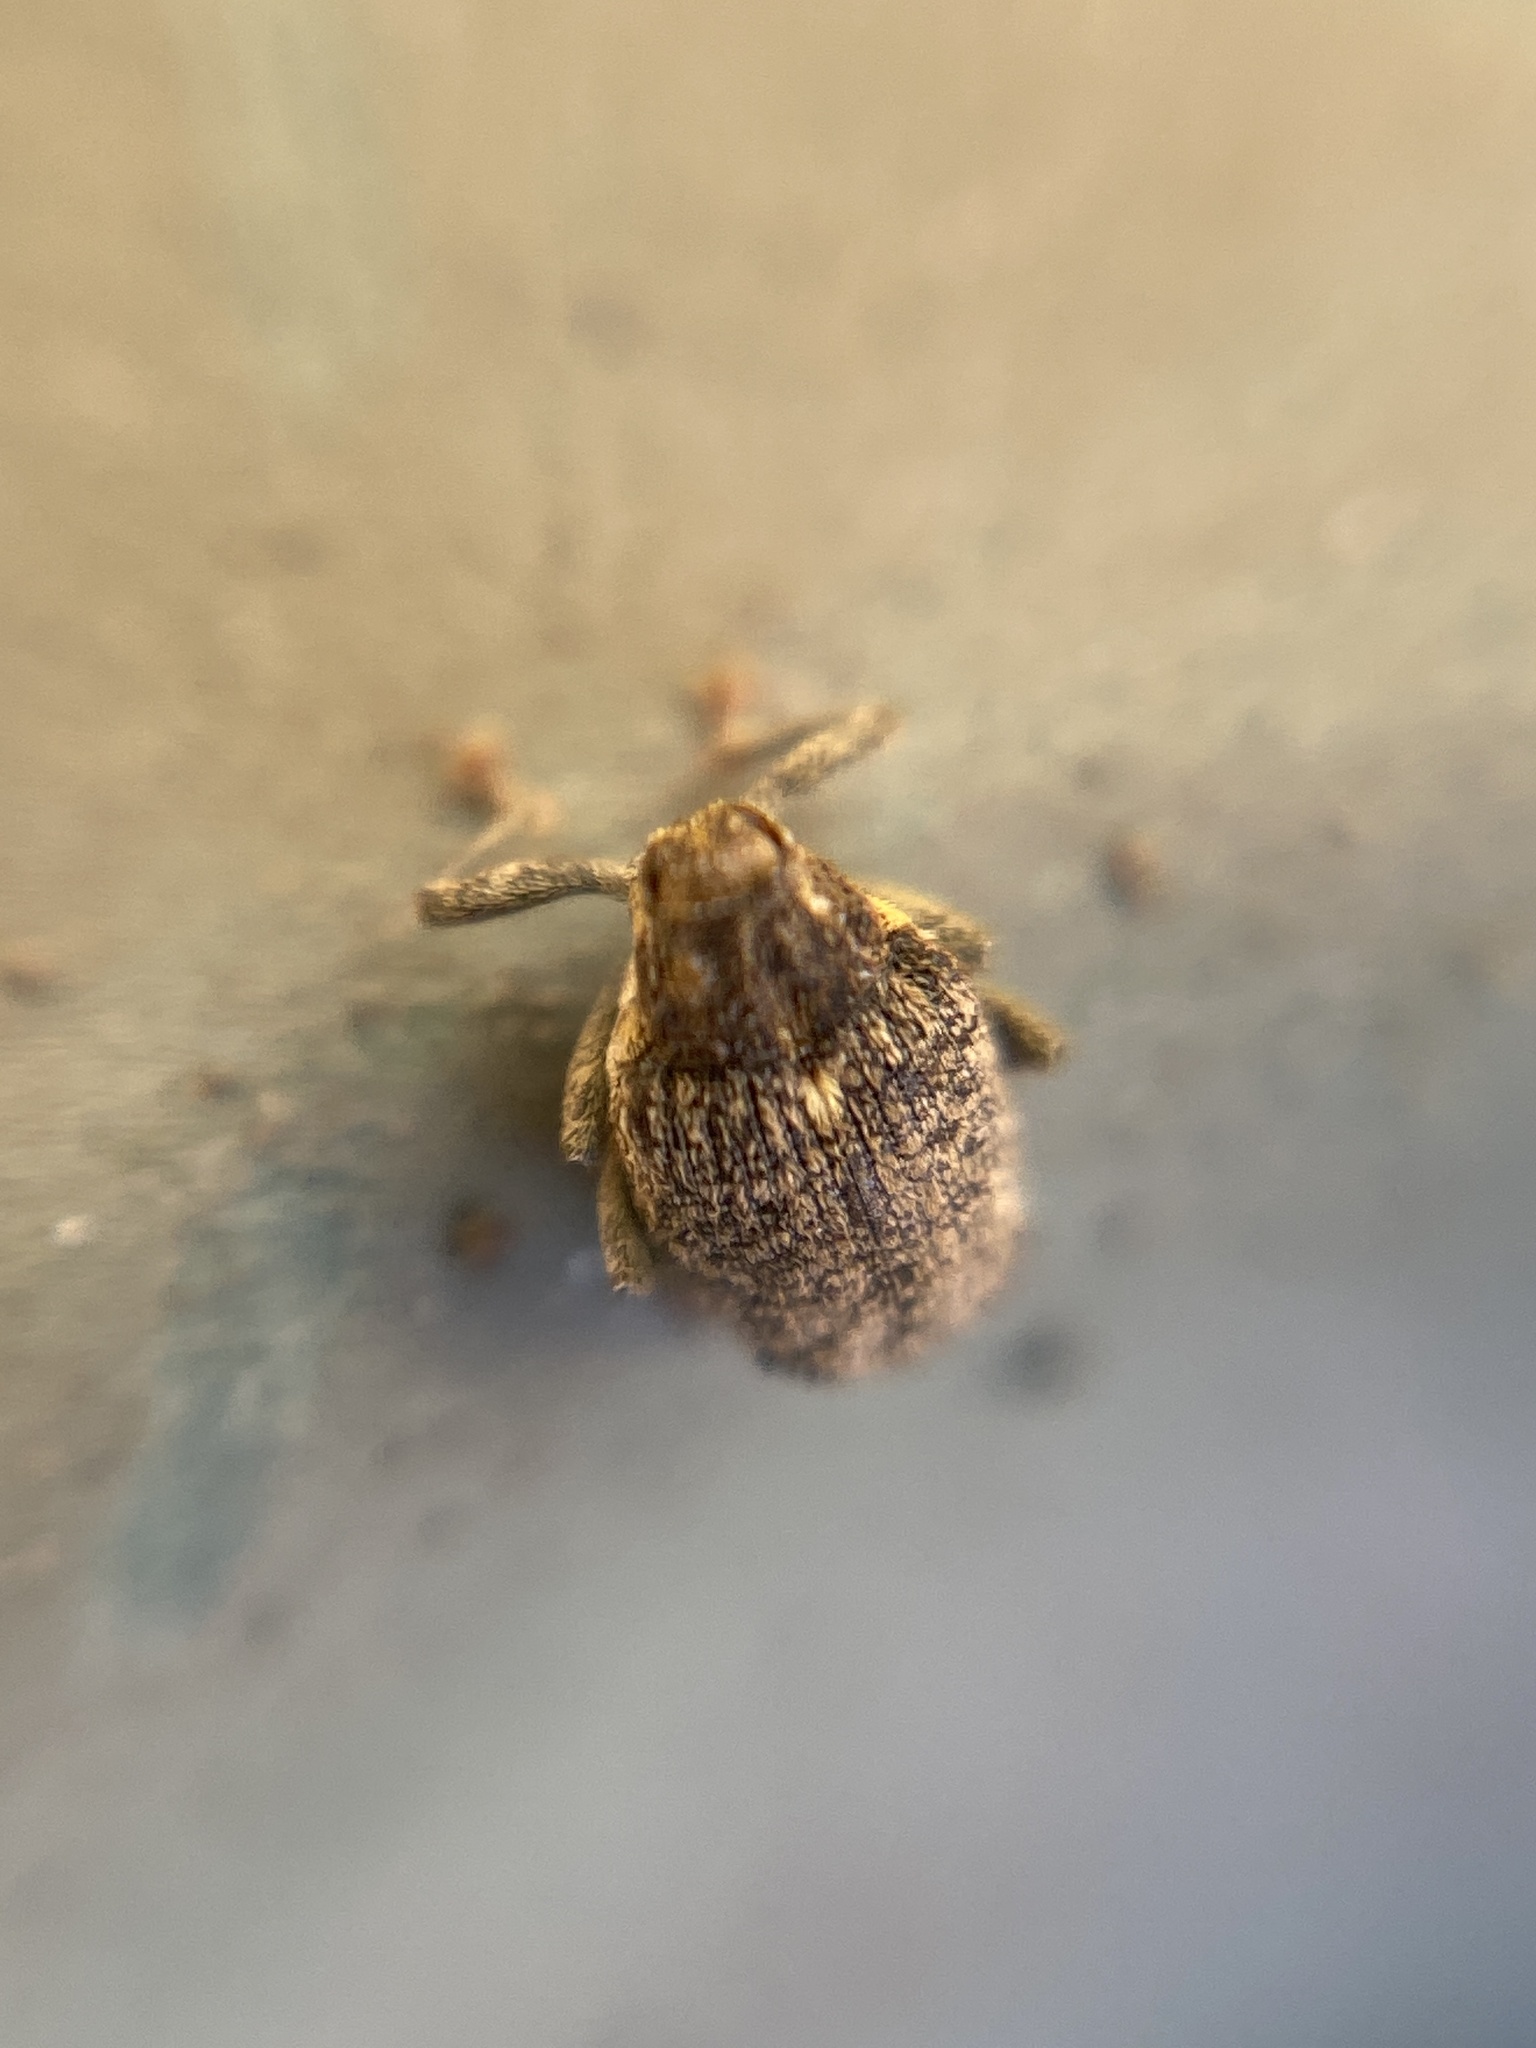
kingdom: Animalia
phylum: Arthropoda
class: Insecta
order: Coleoptera
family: Curculionidae
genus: Ceutorhynchus
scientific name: Ceutorhynchus pallidactylus
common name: Cabbage stem weavil
